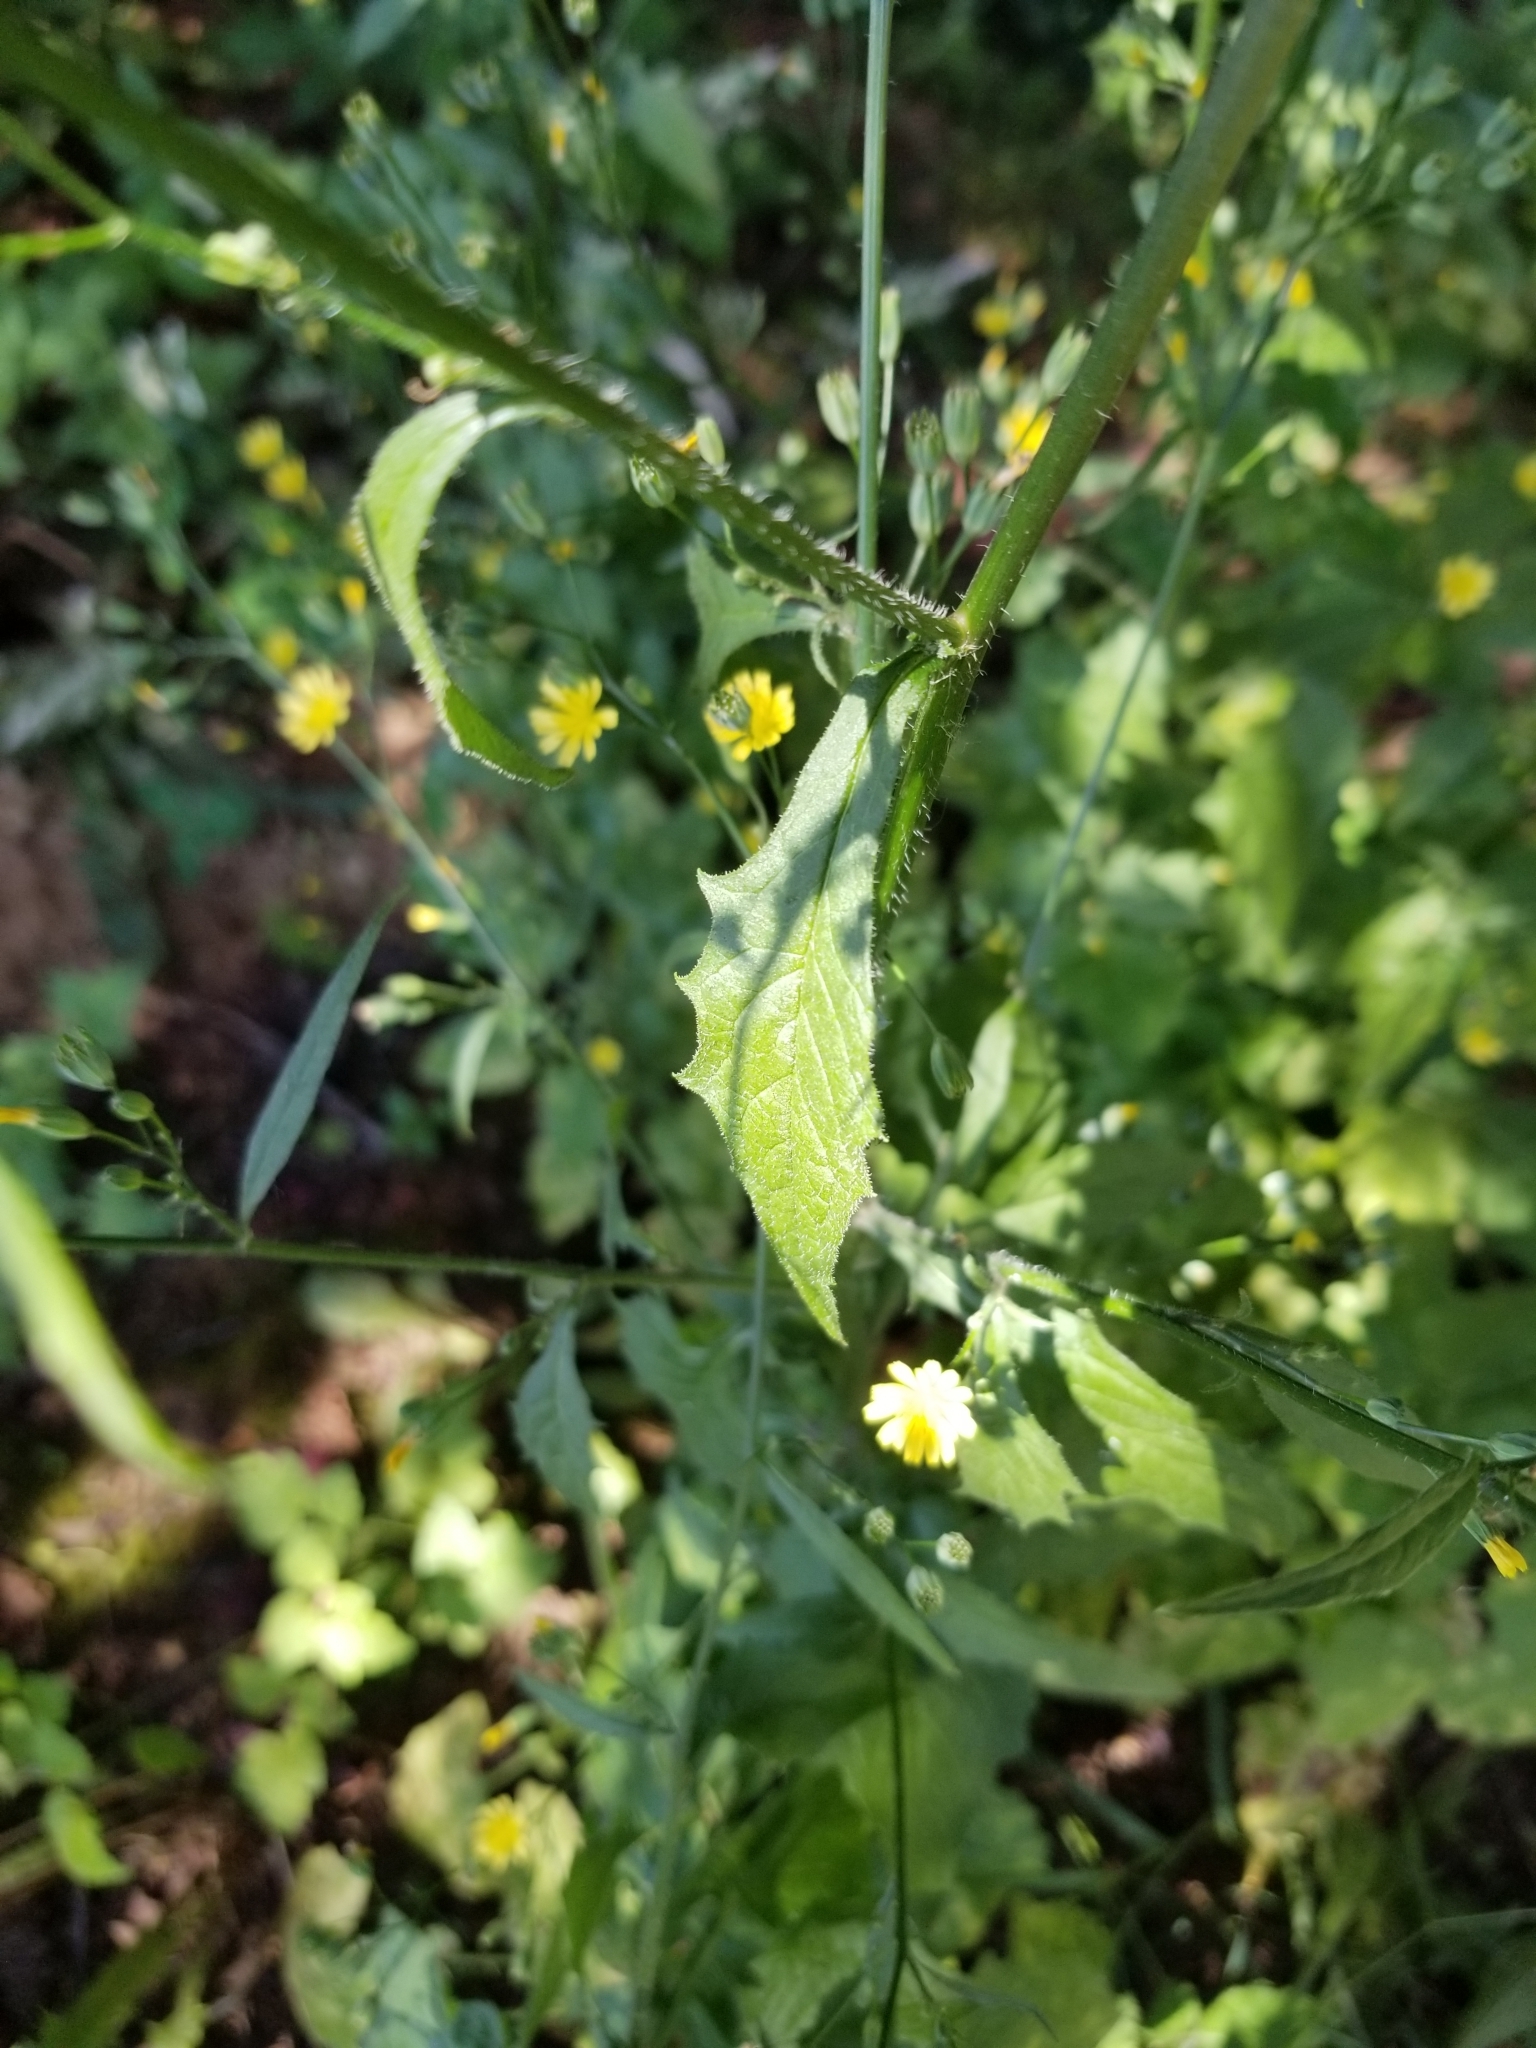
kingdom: Plantae
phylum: Tracheophyta
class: Magnoliopsida
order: Asterales
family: Asteraceae
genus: Lapsana
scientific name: Lapsana communis
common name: Nipplewort
